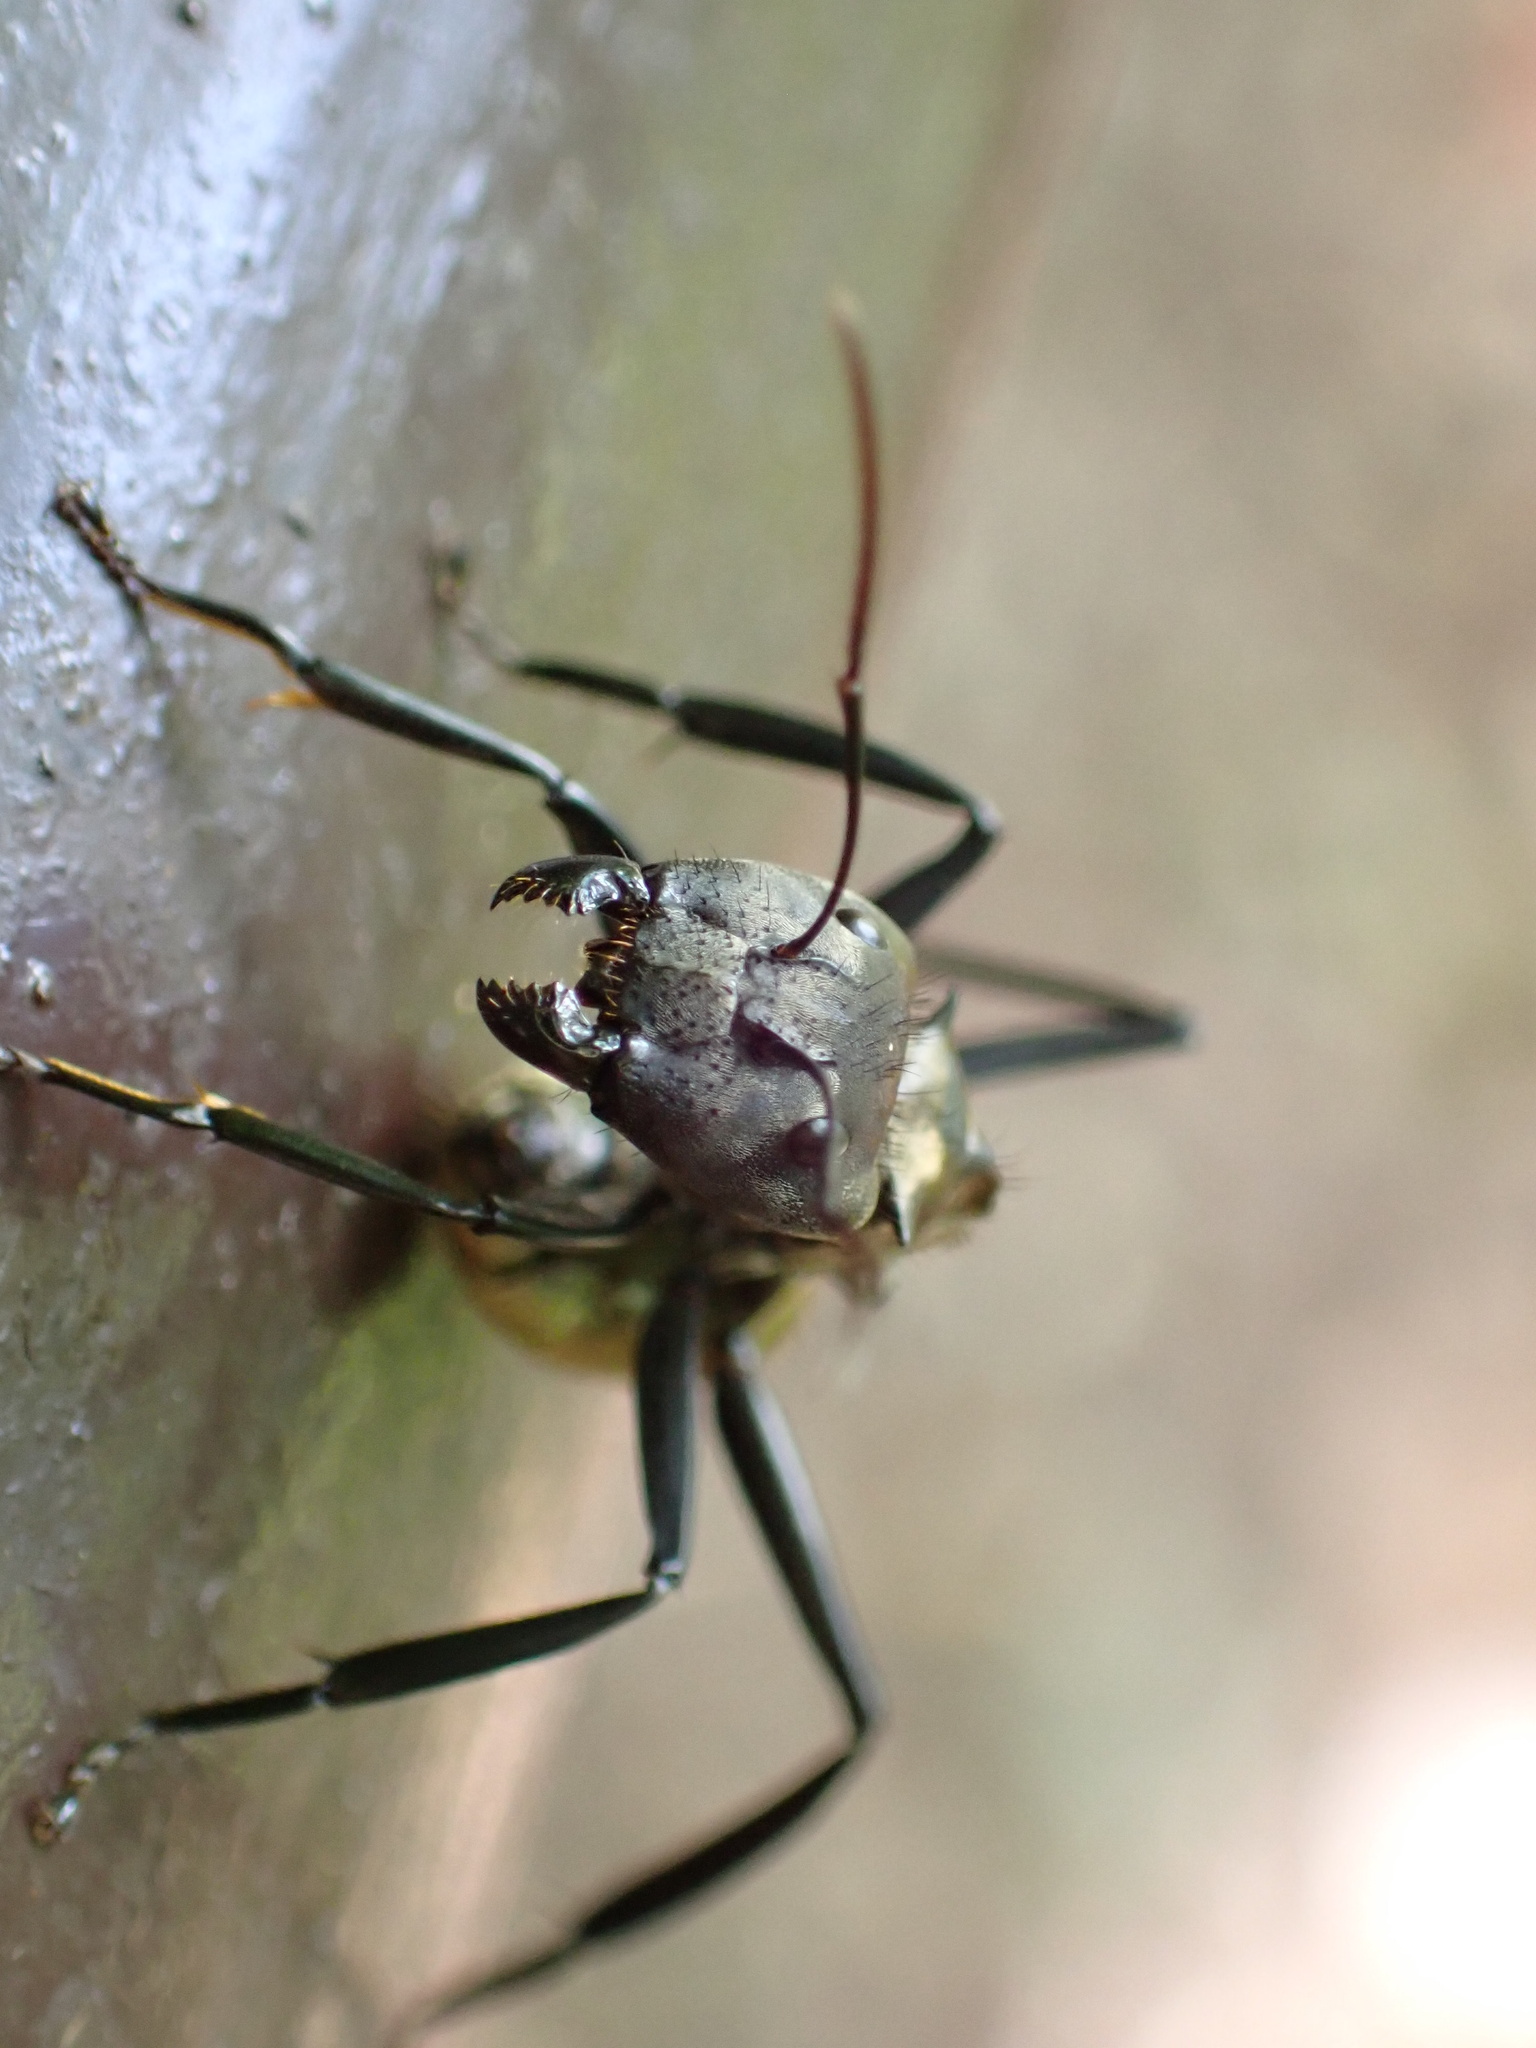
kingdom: Animalia
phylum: Arthropoda
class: Insecta
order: Hymenoptera
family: Formicidae
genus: Camponotus
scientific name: Camponotus sericeiventris
